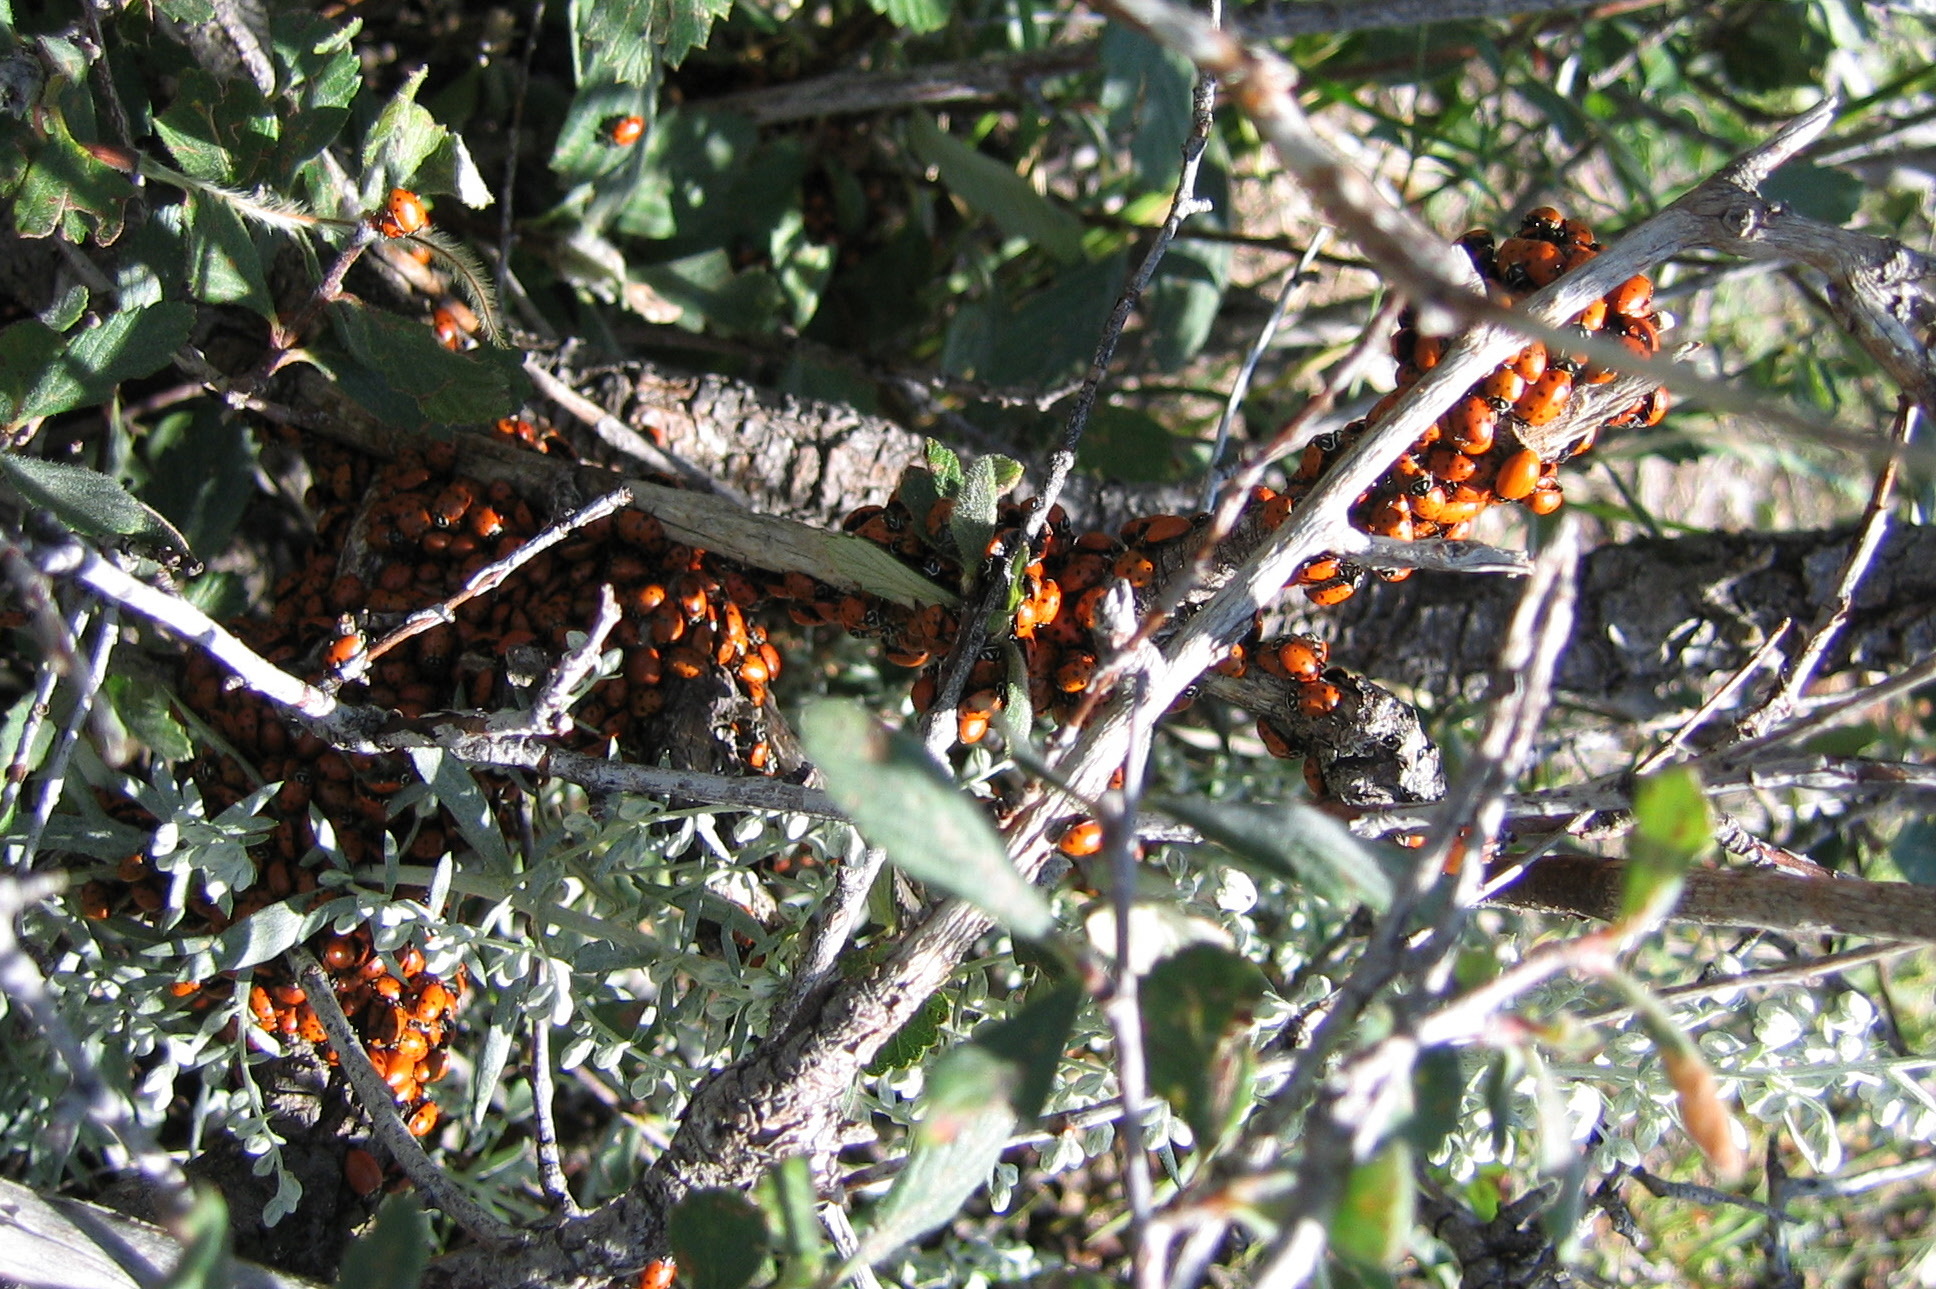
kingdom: Animalia
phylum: Arthropoda
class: Insecta
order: Coleoptera
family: Coccinellidae
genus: Hippodamia
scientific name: Hippodamia convergens
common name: Convergent lady beetle
